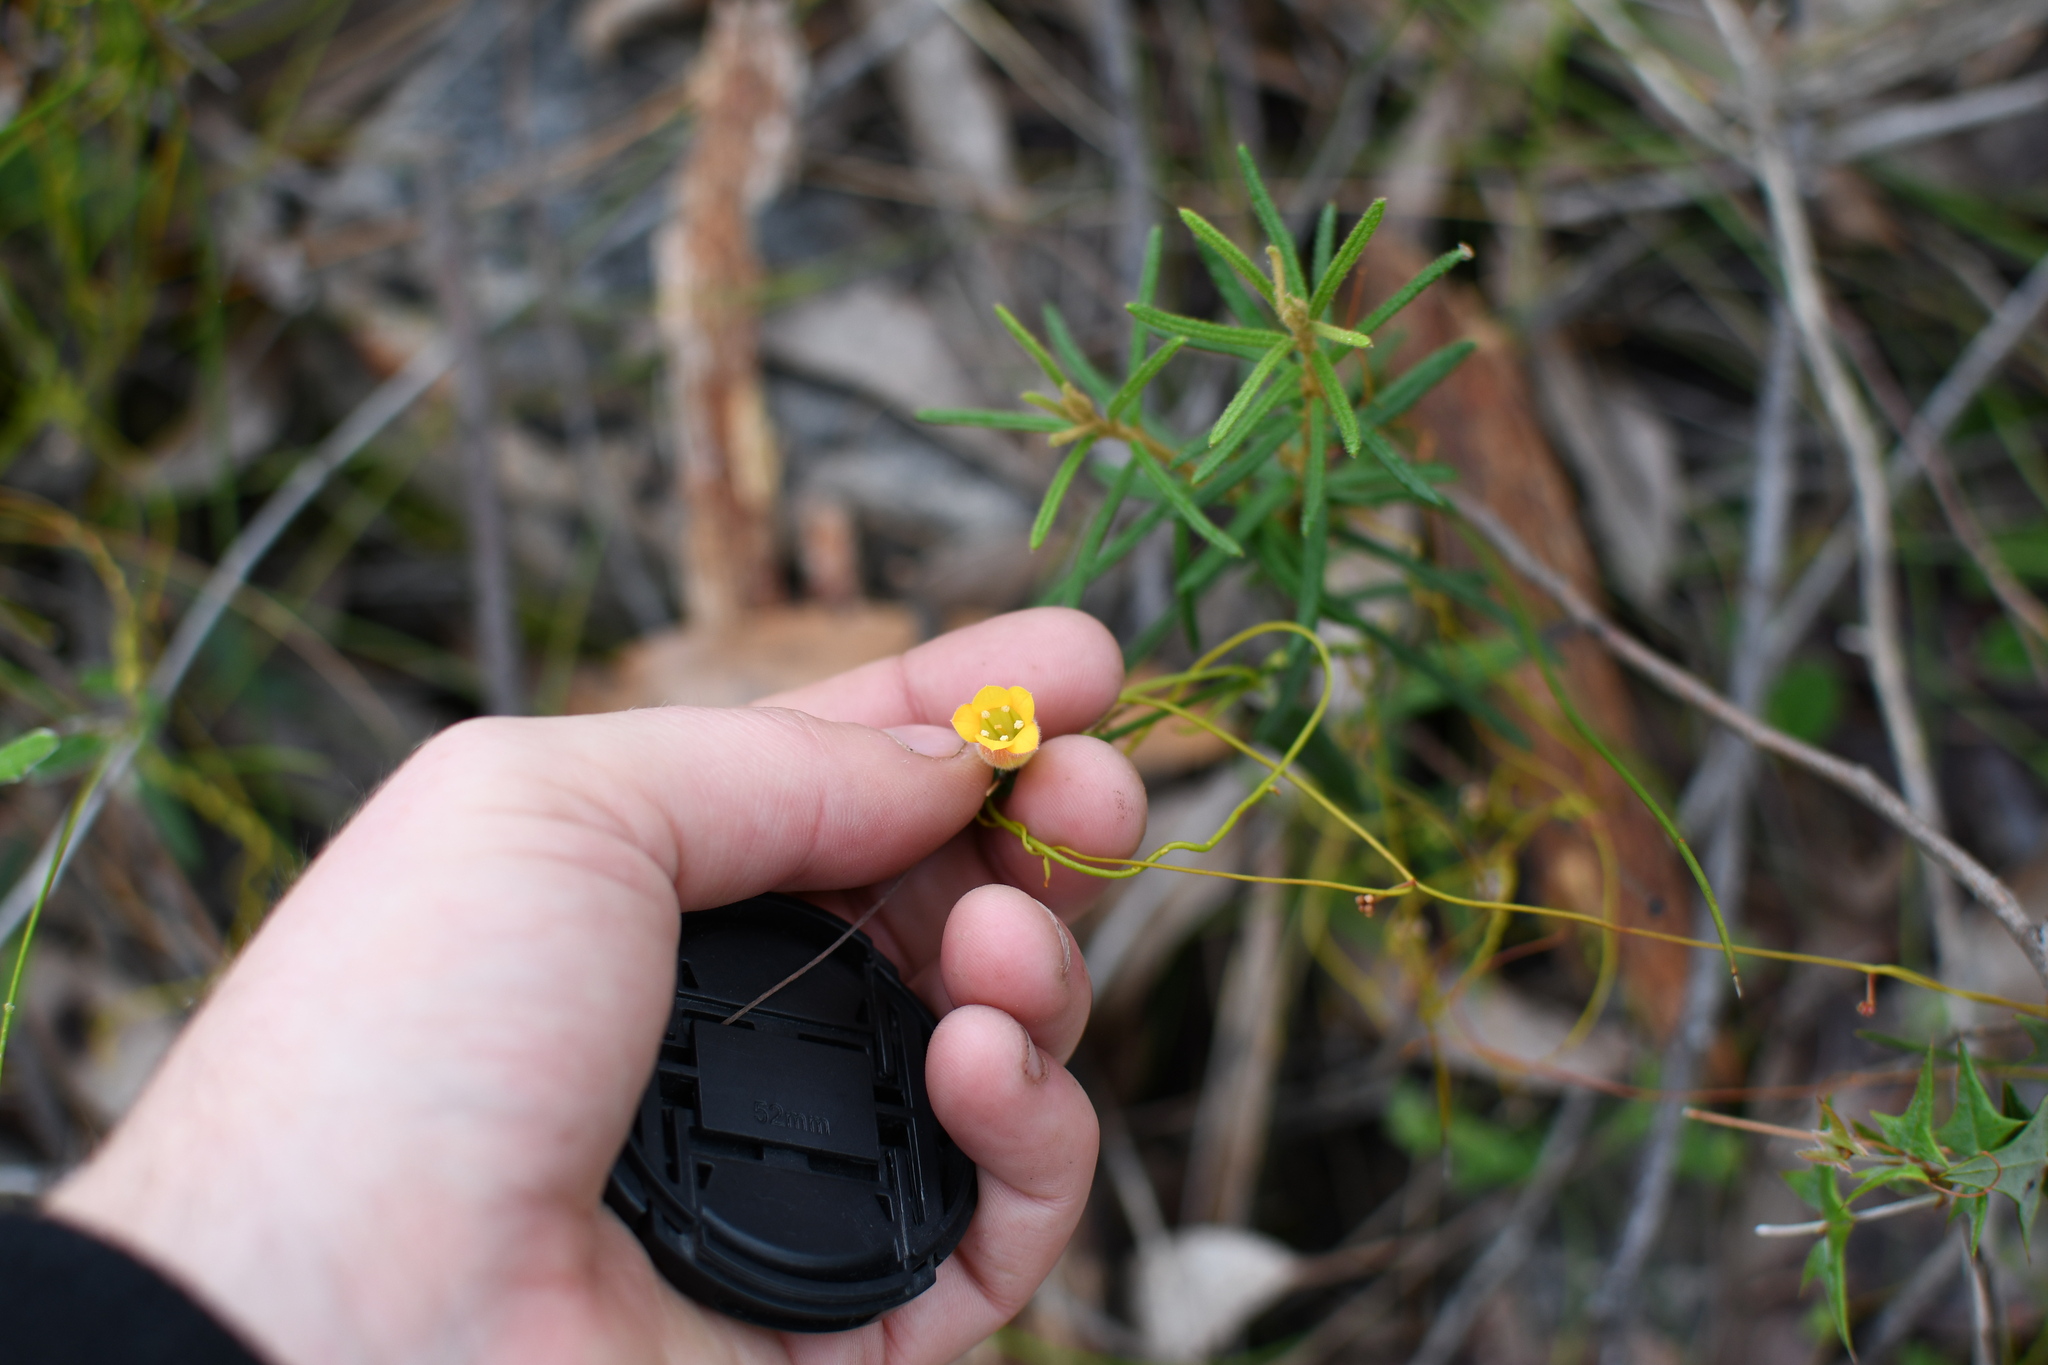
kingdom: Plantae
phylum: Tracheophyta
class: Magnoliopsida
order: Apiales
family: Pittosporaceae
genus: Marianthus
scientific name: Marianthus bignoniaceus
